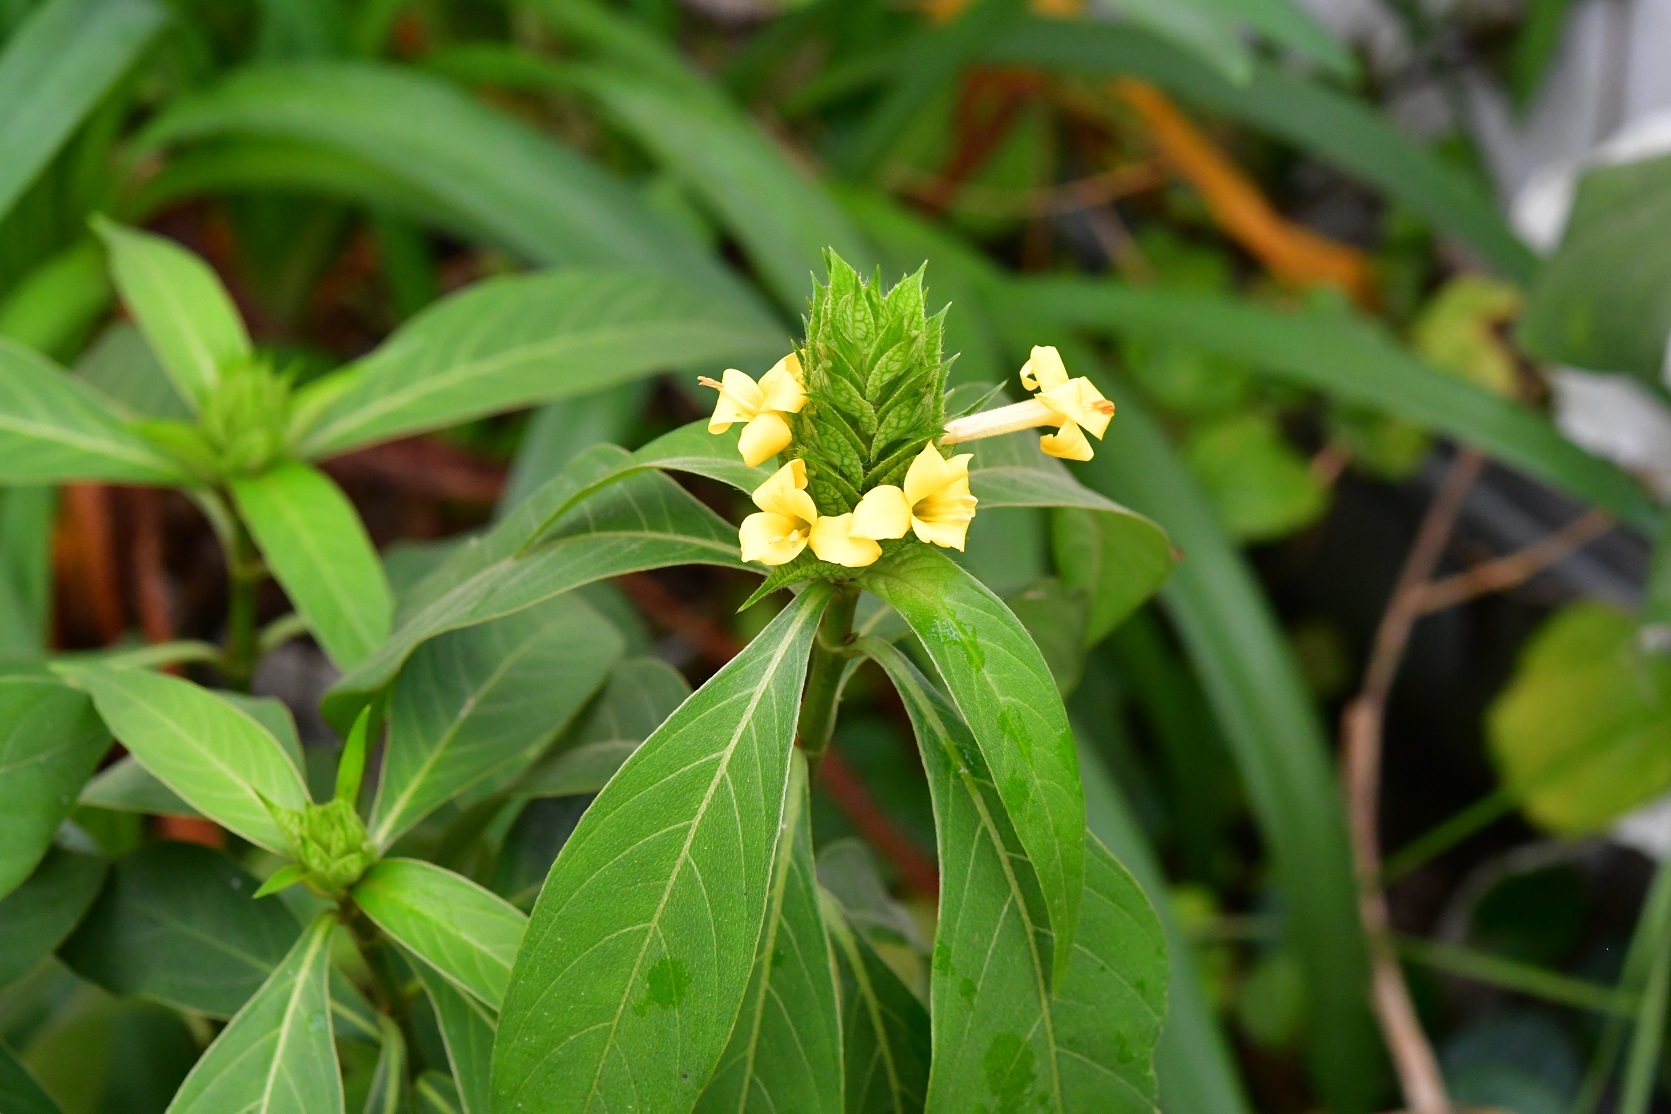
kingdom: Plantae
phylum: Tracheophyta
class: Magnoliopsida
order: Lamiales
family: Acanthaceae
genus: Barleria
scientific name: Barleria oenotheroides
